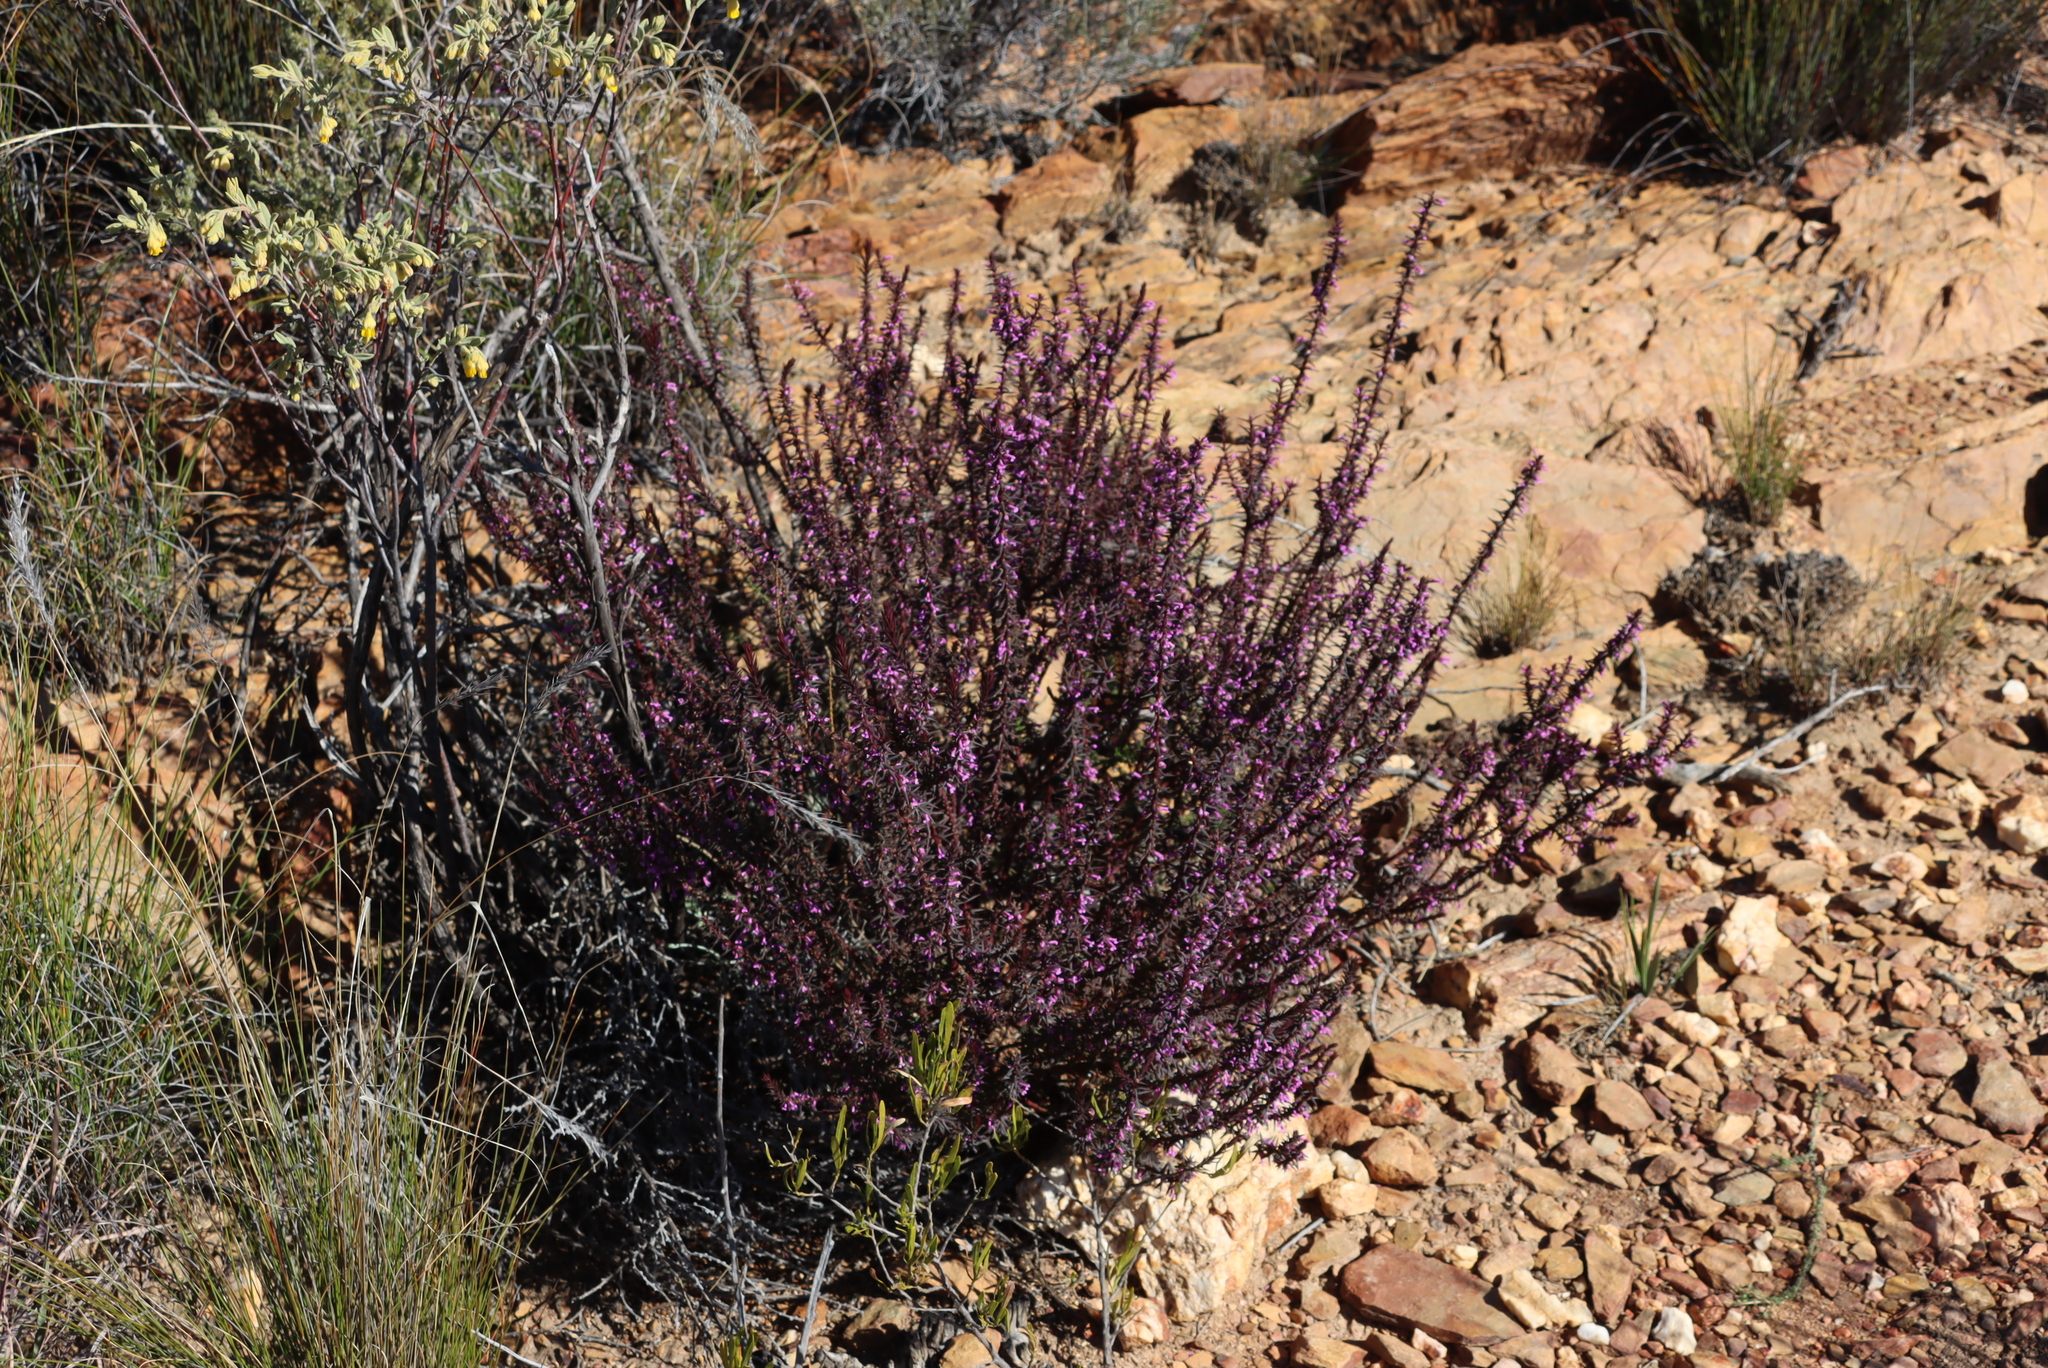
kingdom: Plantae
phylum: Tracheophyta
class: Magnoliopsida
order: Fabales
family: Polygalaceae
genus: Muraltia
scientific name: Muraltia juniperifolia
